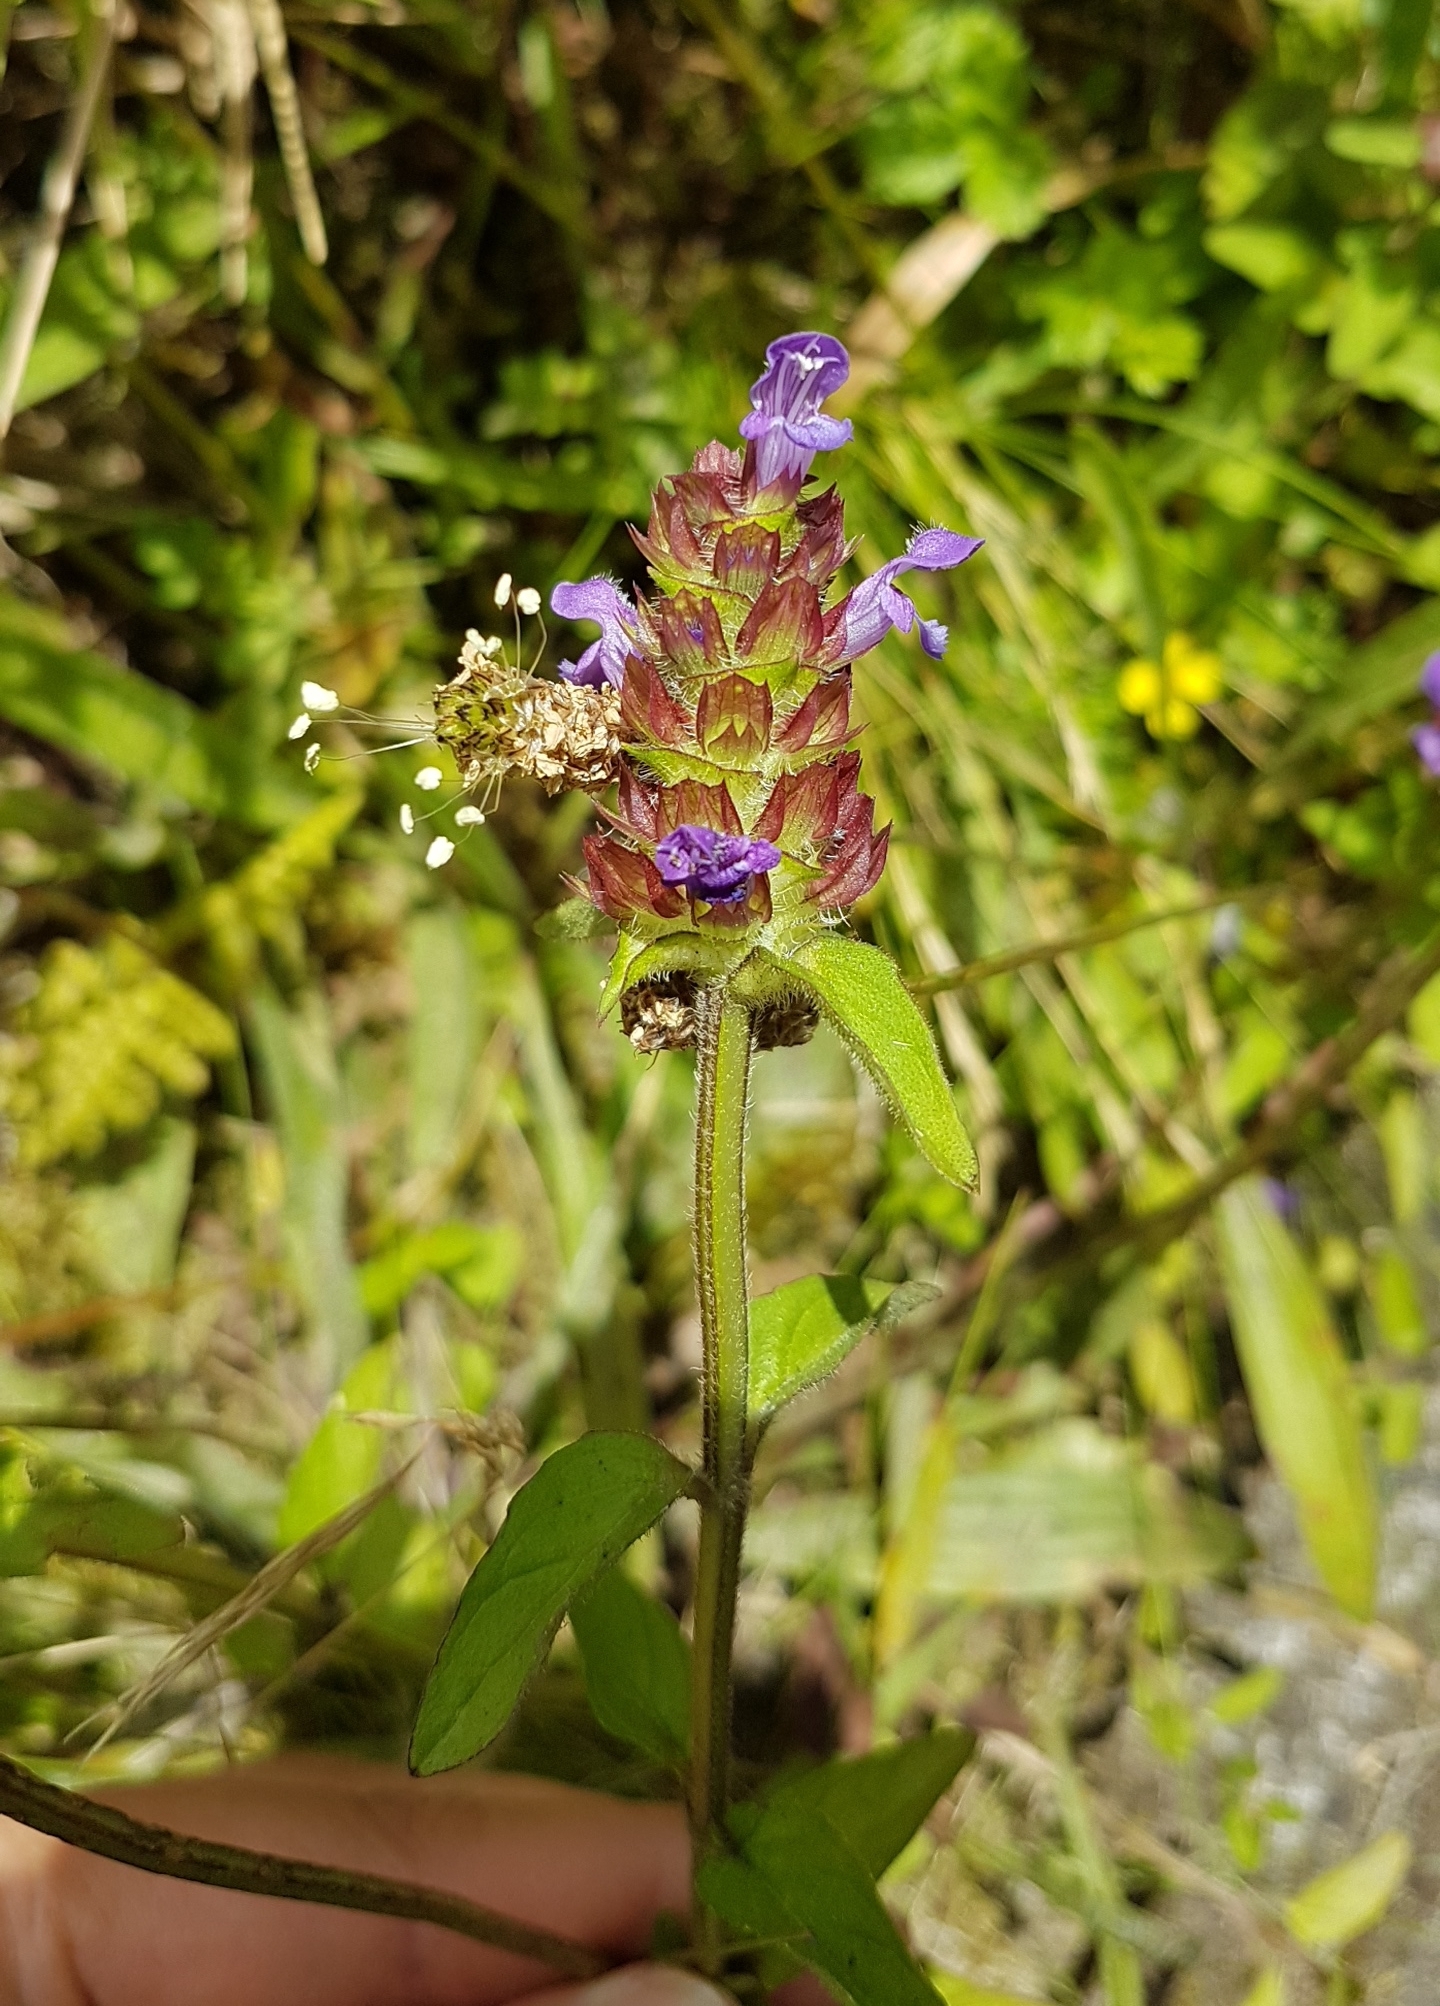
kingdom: Plantae
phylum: Tracheophyta
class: Magnoliopsida
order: Lamiales
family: Lamiaceae
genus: Prunella
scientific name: Prunella vulgaris
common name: Heal-all
